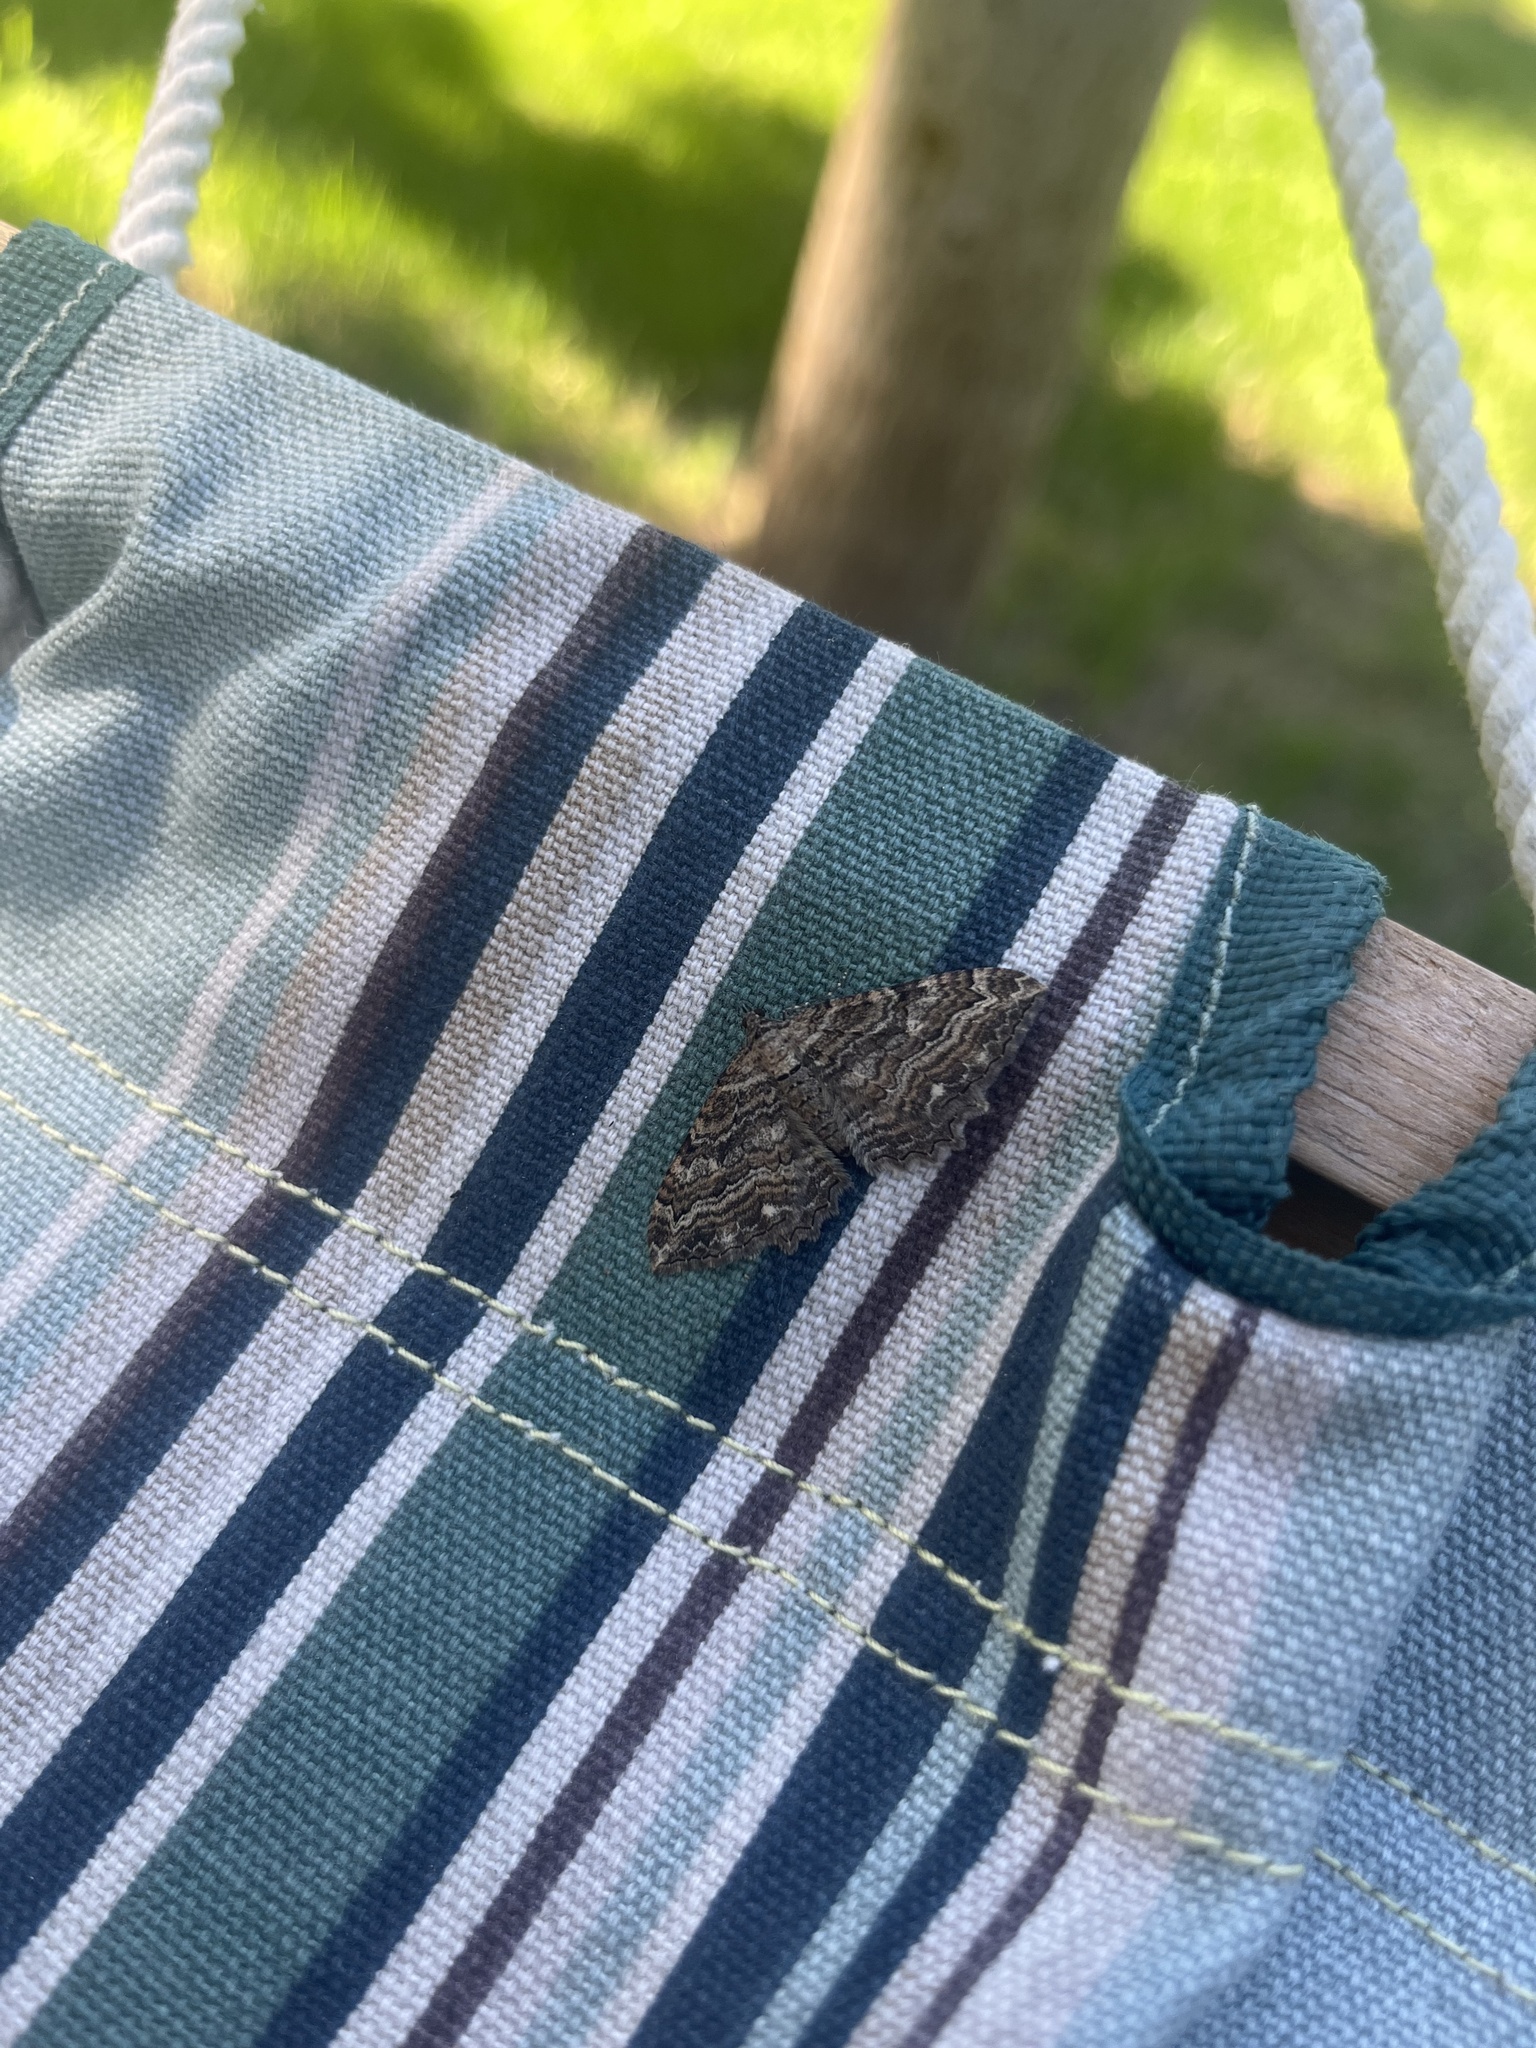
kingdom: Animalia
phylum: Arthropoda
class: Insecta
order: Lepidoptera
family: Geometridae
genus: Rheumaptera
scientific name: Rheumaptera
